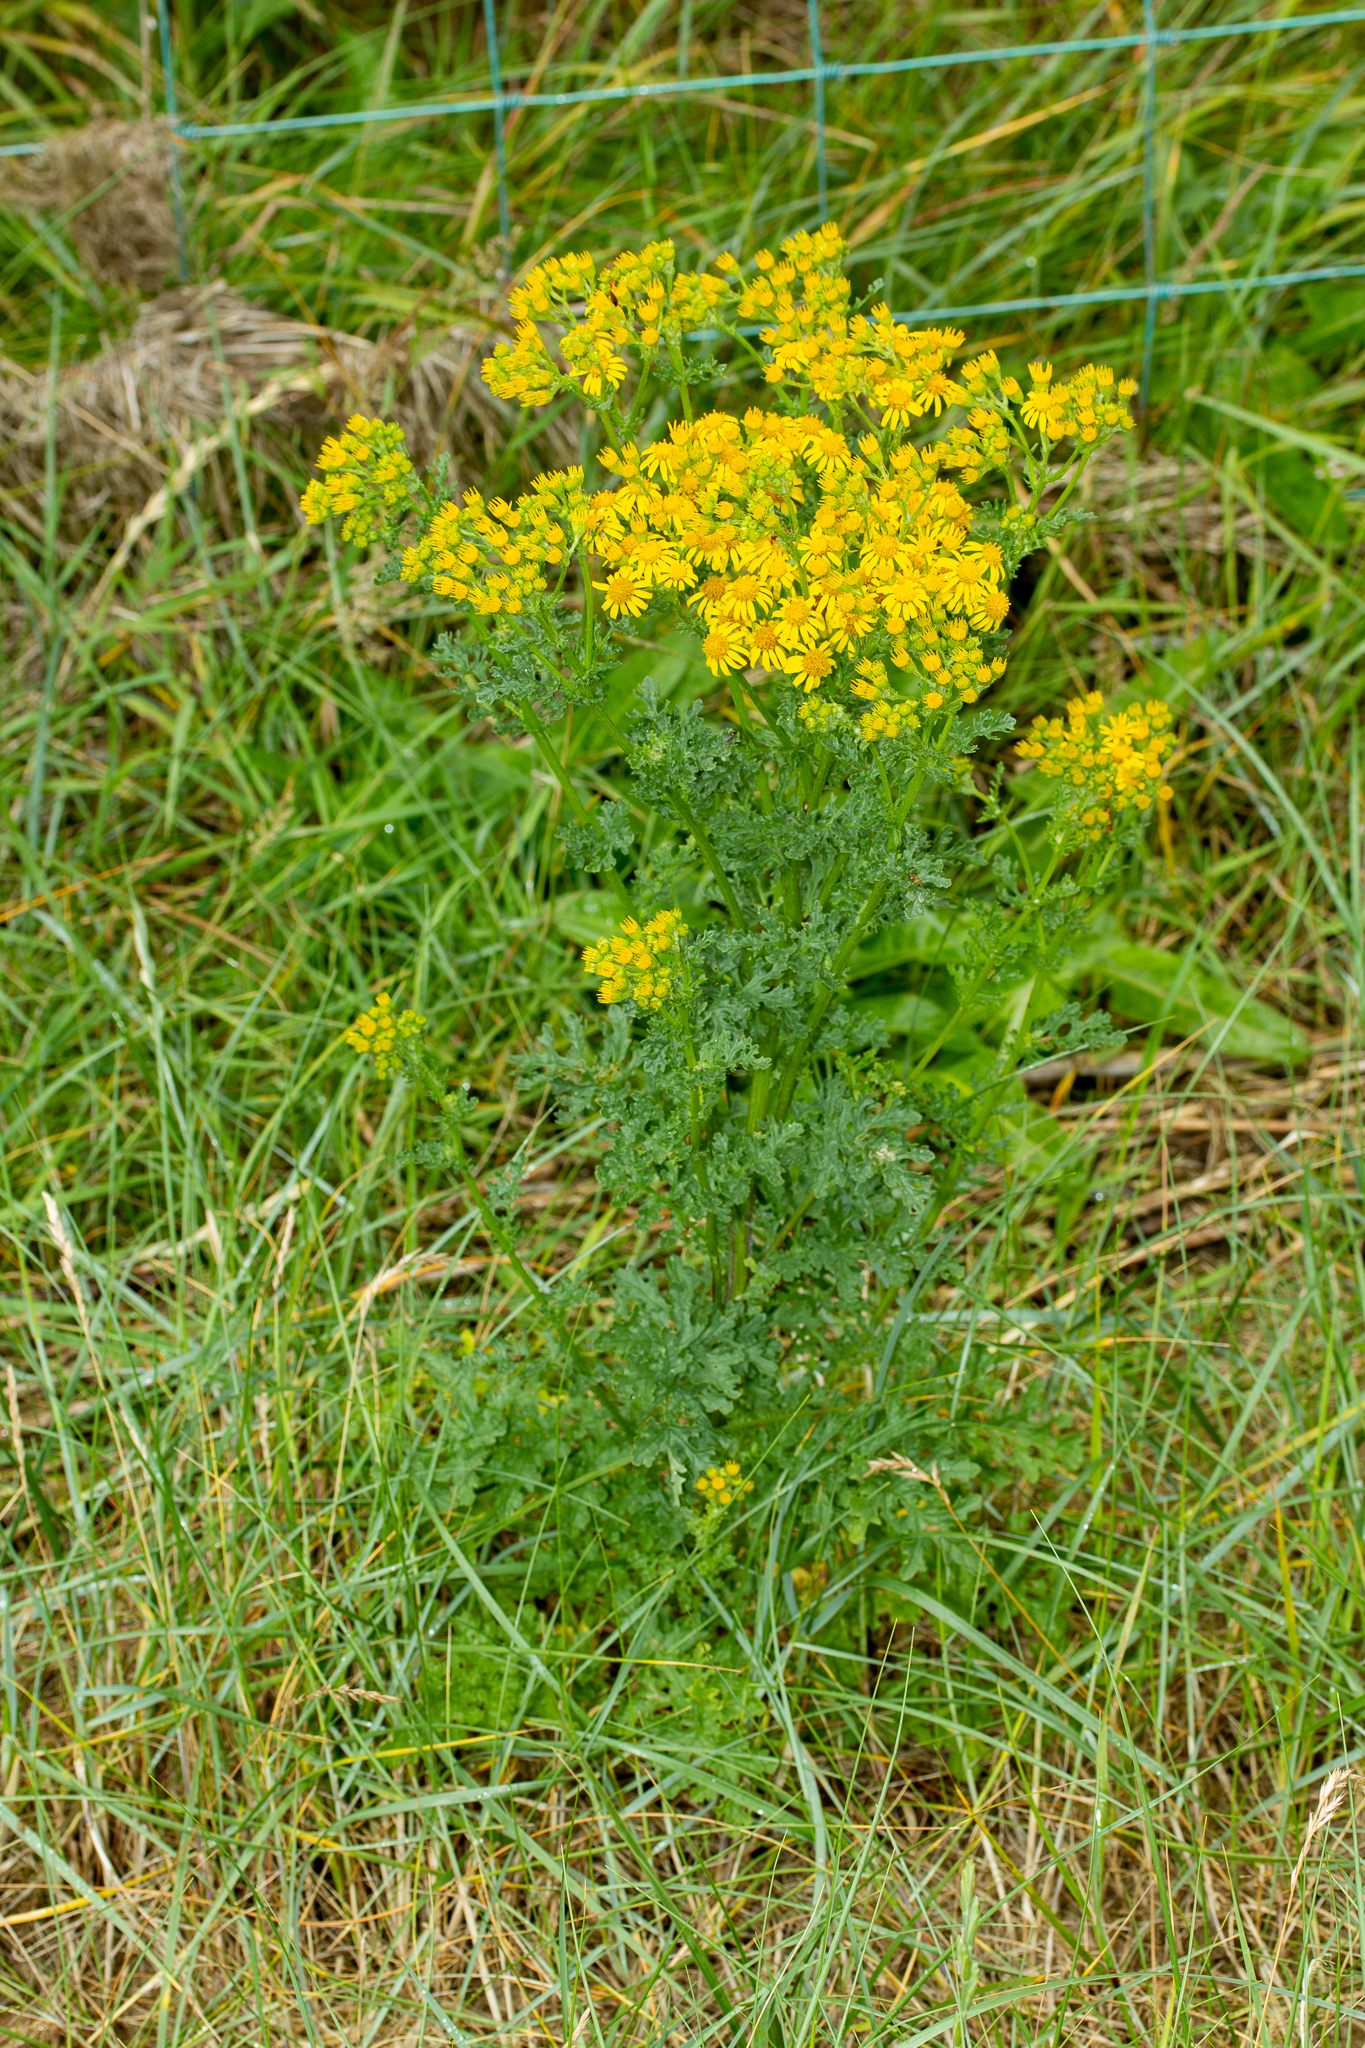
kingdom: Plantae
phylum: Tracheophyta
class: Magnoliopsida
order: Asterales
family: Asteraceae
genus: Jacobaea
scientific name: Jacobaea vulgaris
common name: Stinking willie
